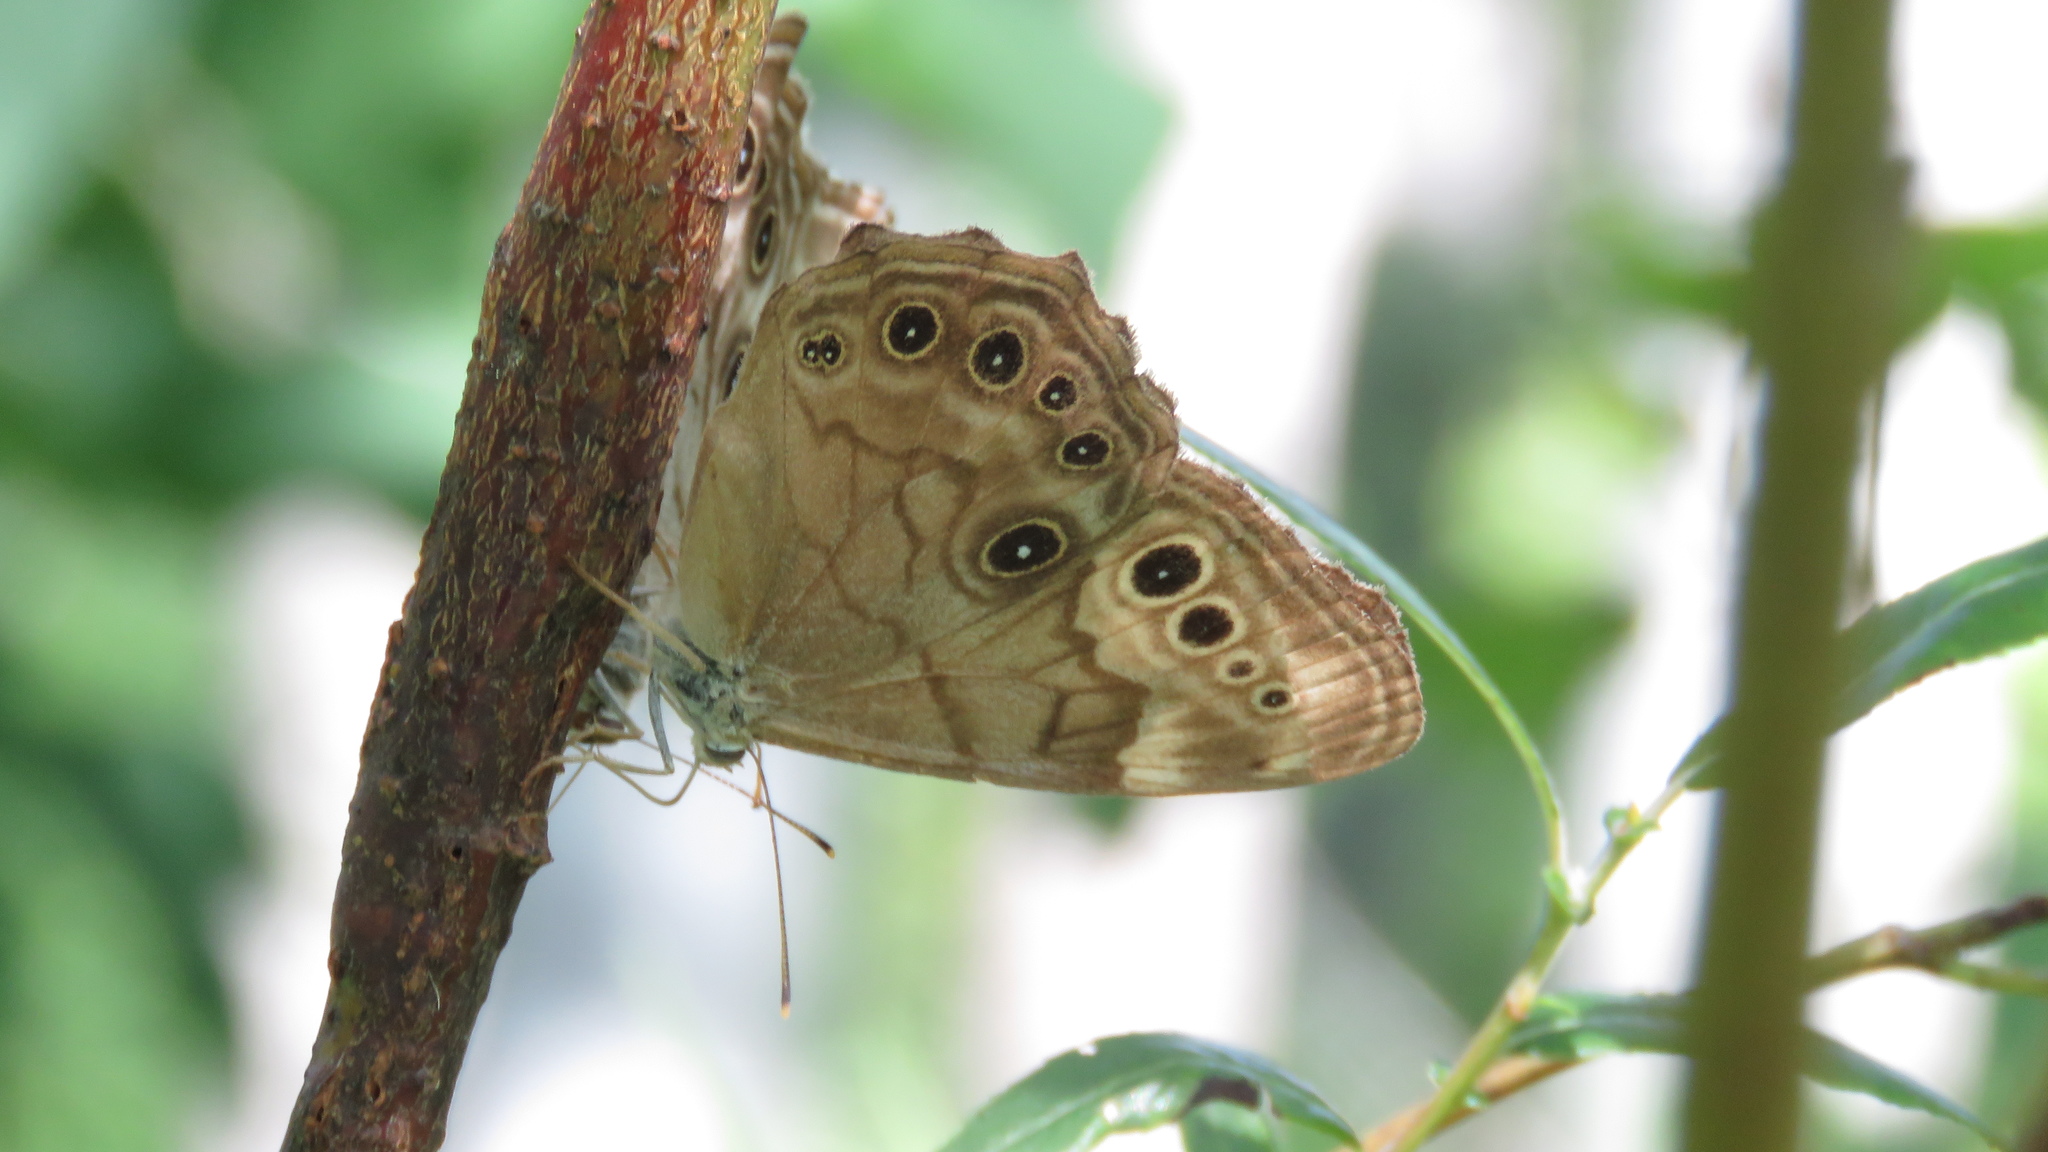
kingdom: Animalia
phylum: Arthropoda
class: Insecta
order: Lepidoptera
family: Nymphalidae
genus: Lethe
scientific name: Lethe anthedon
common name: Northern pearly-eye
